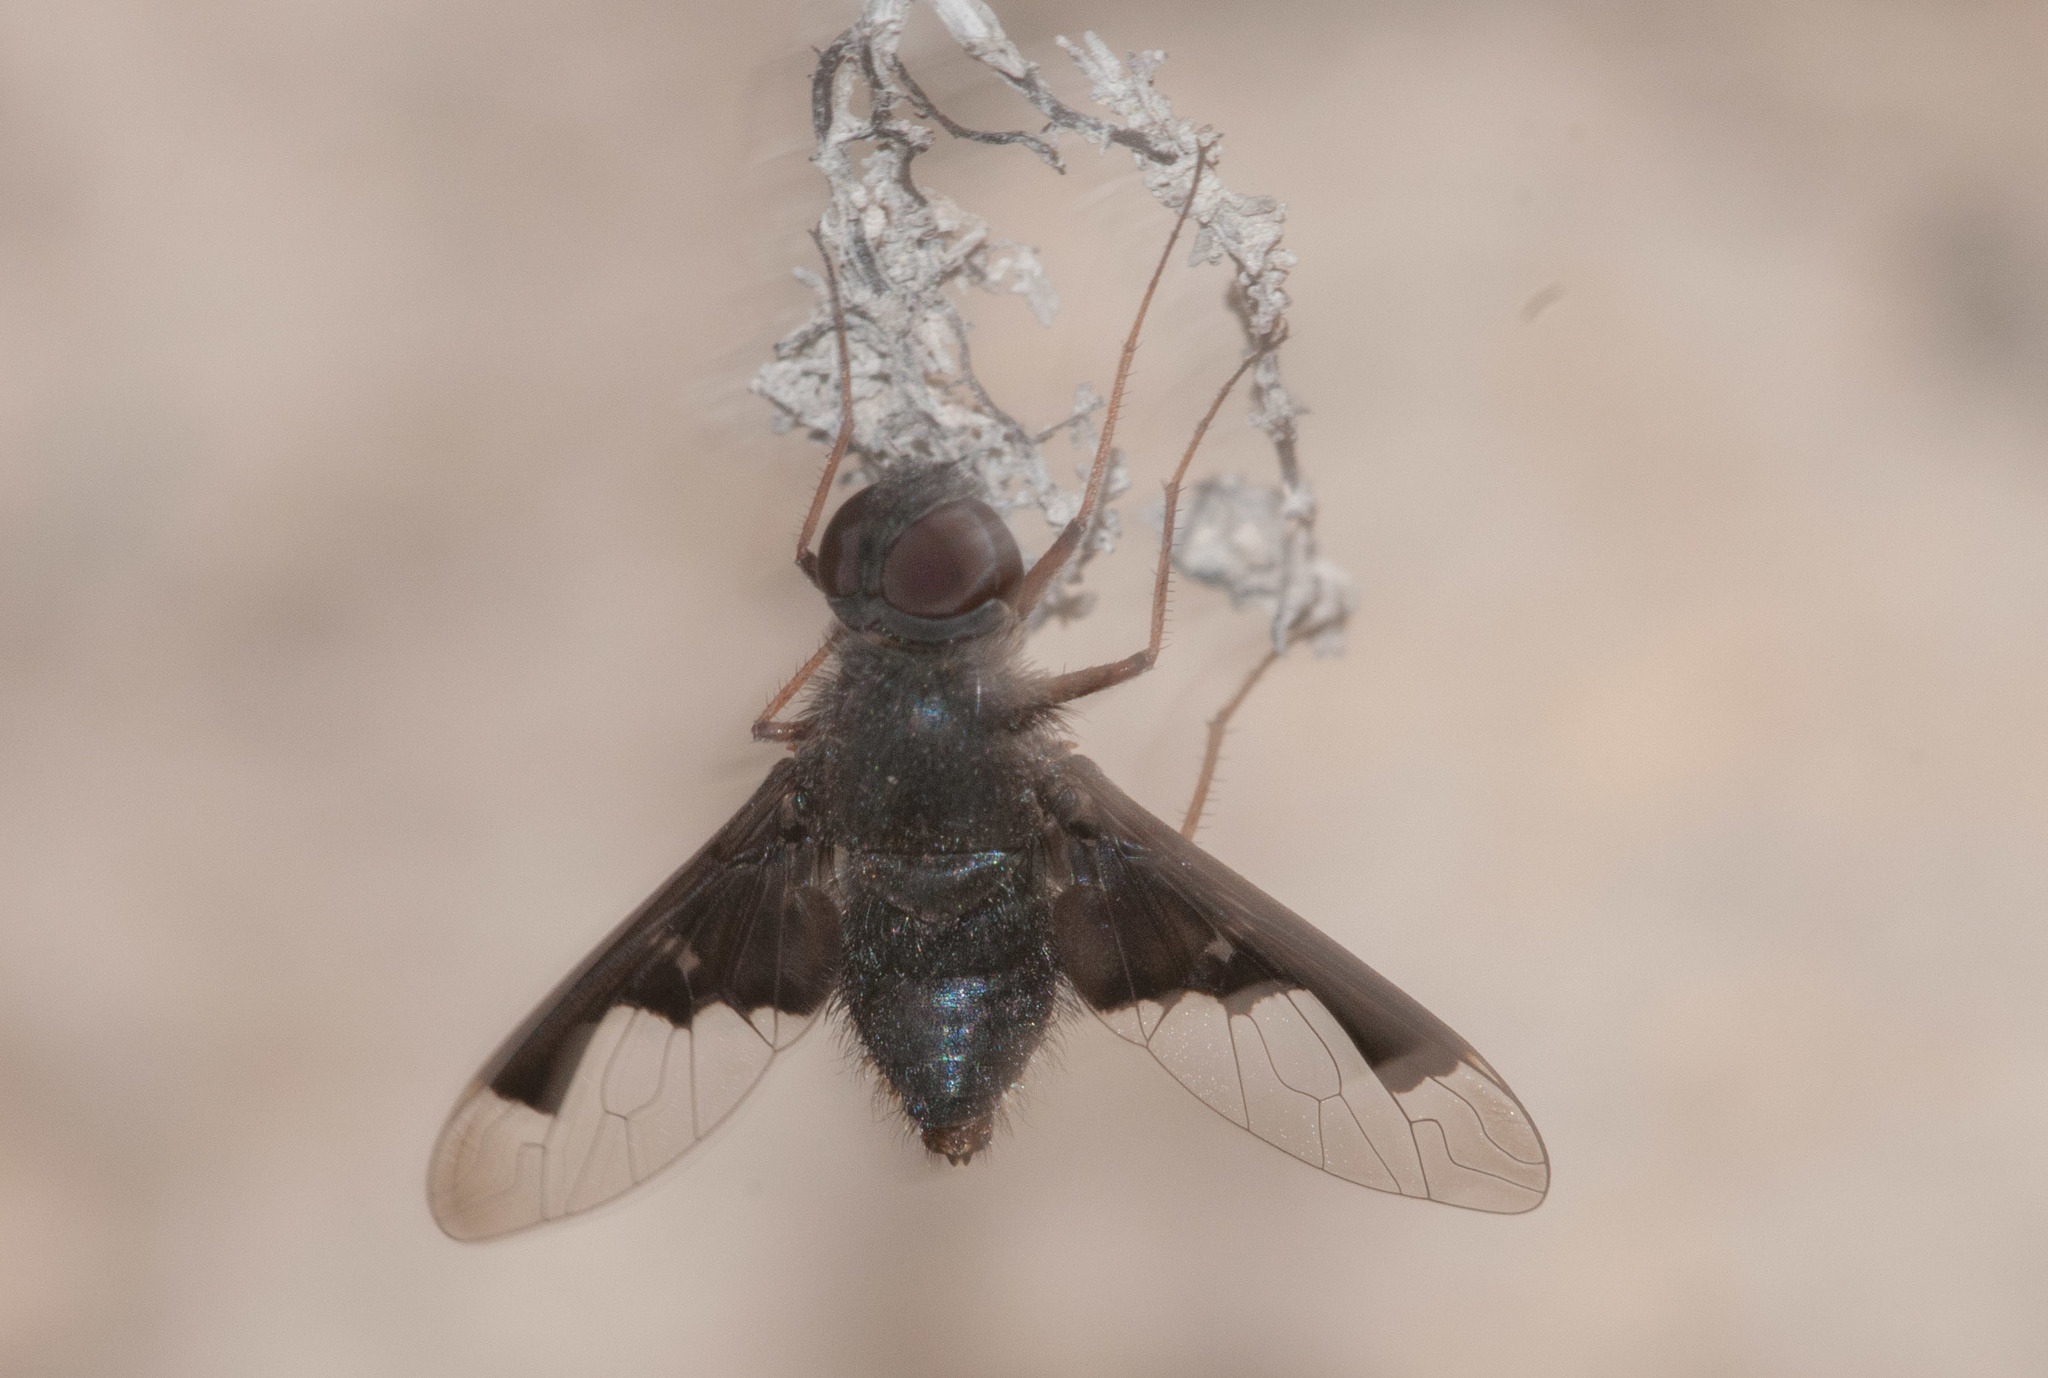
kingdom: Animalia
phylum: Arthropoda
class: Insecta
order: Diptera
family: Bombyliidae
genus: Anthrax
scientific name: Anthrax dolobratus
